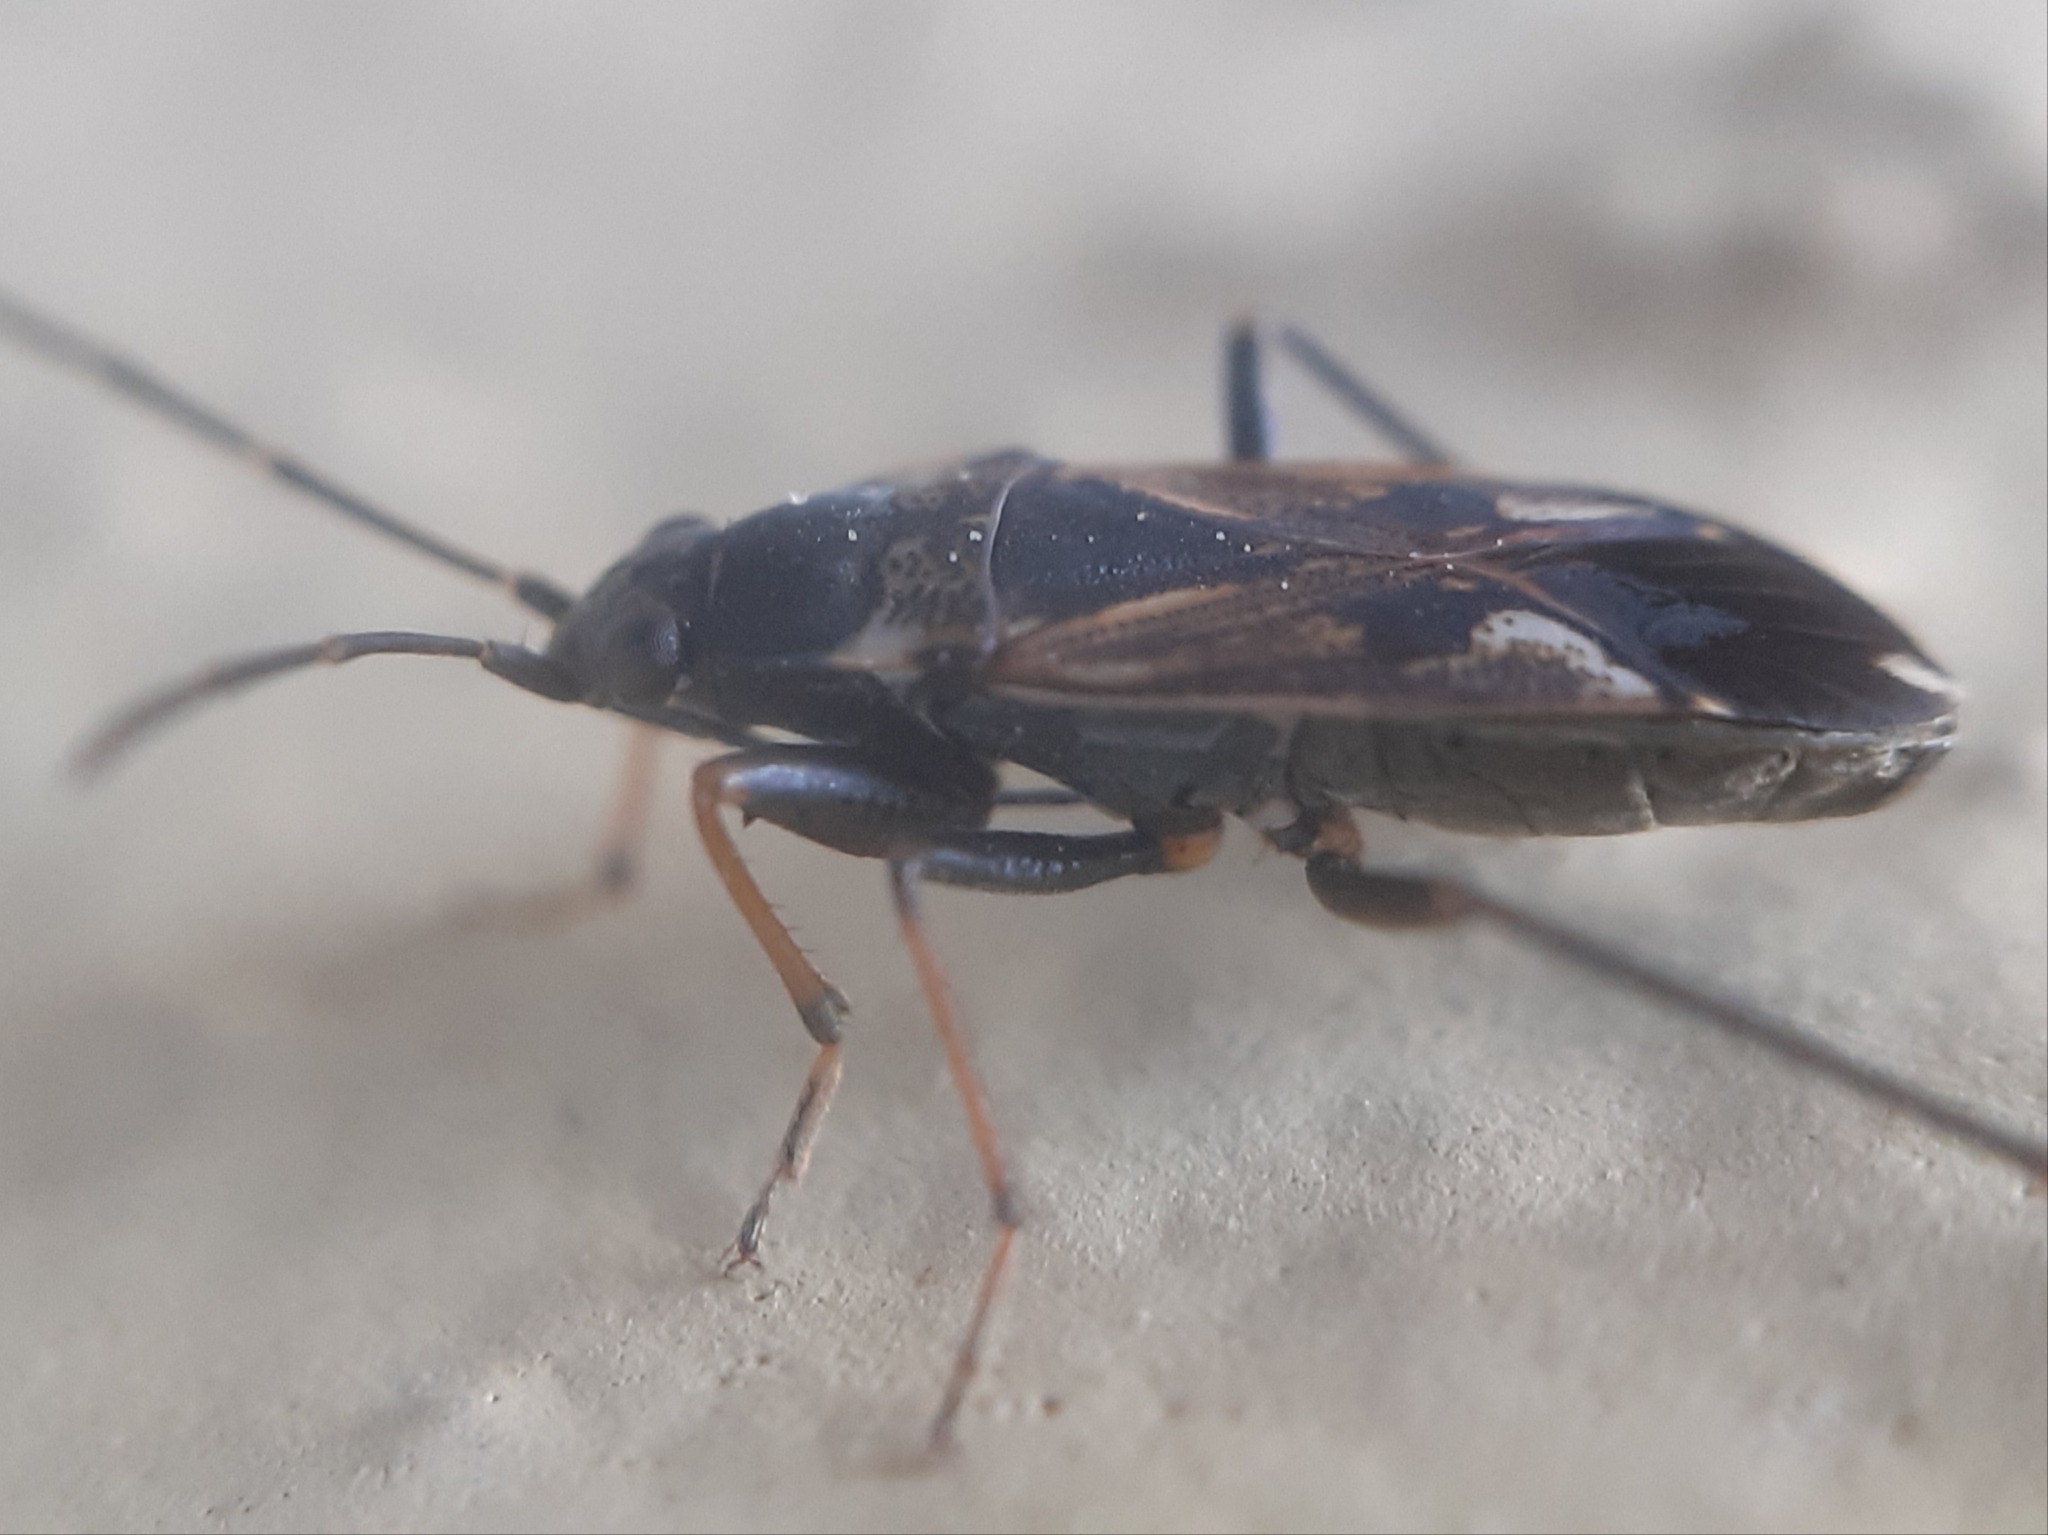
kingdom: Animalia
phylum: Arthropoda
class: Insecta
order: Hemiptera
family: Rhyparochromidae
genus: Rhyparochromus
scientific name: Rhyparochromus vulgaris
